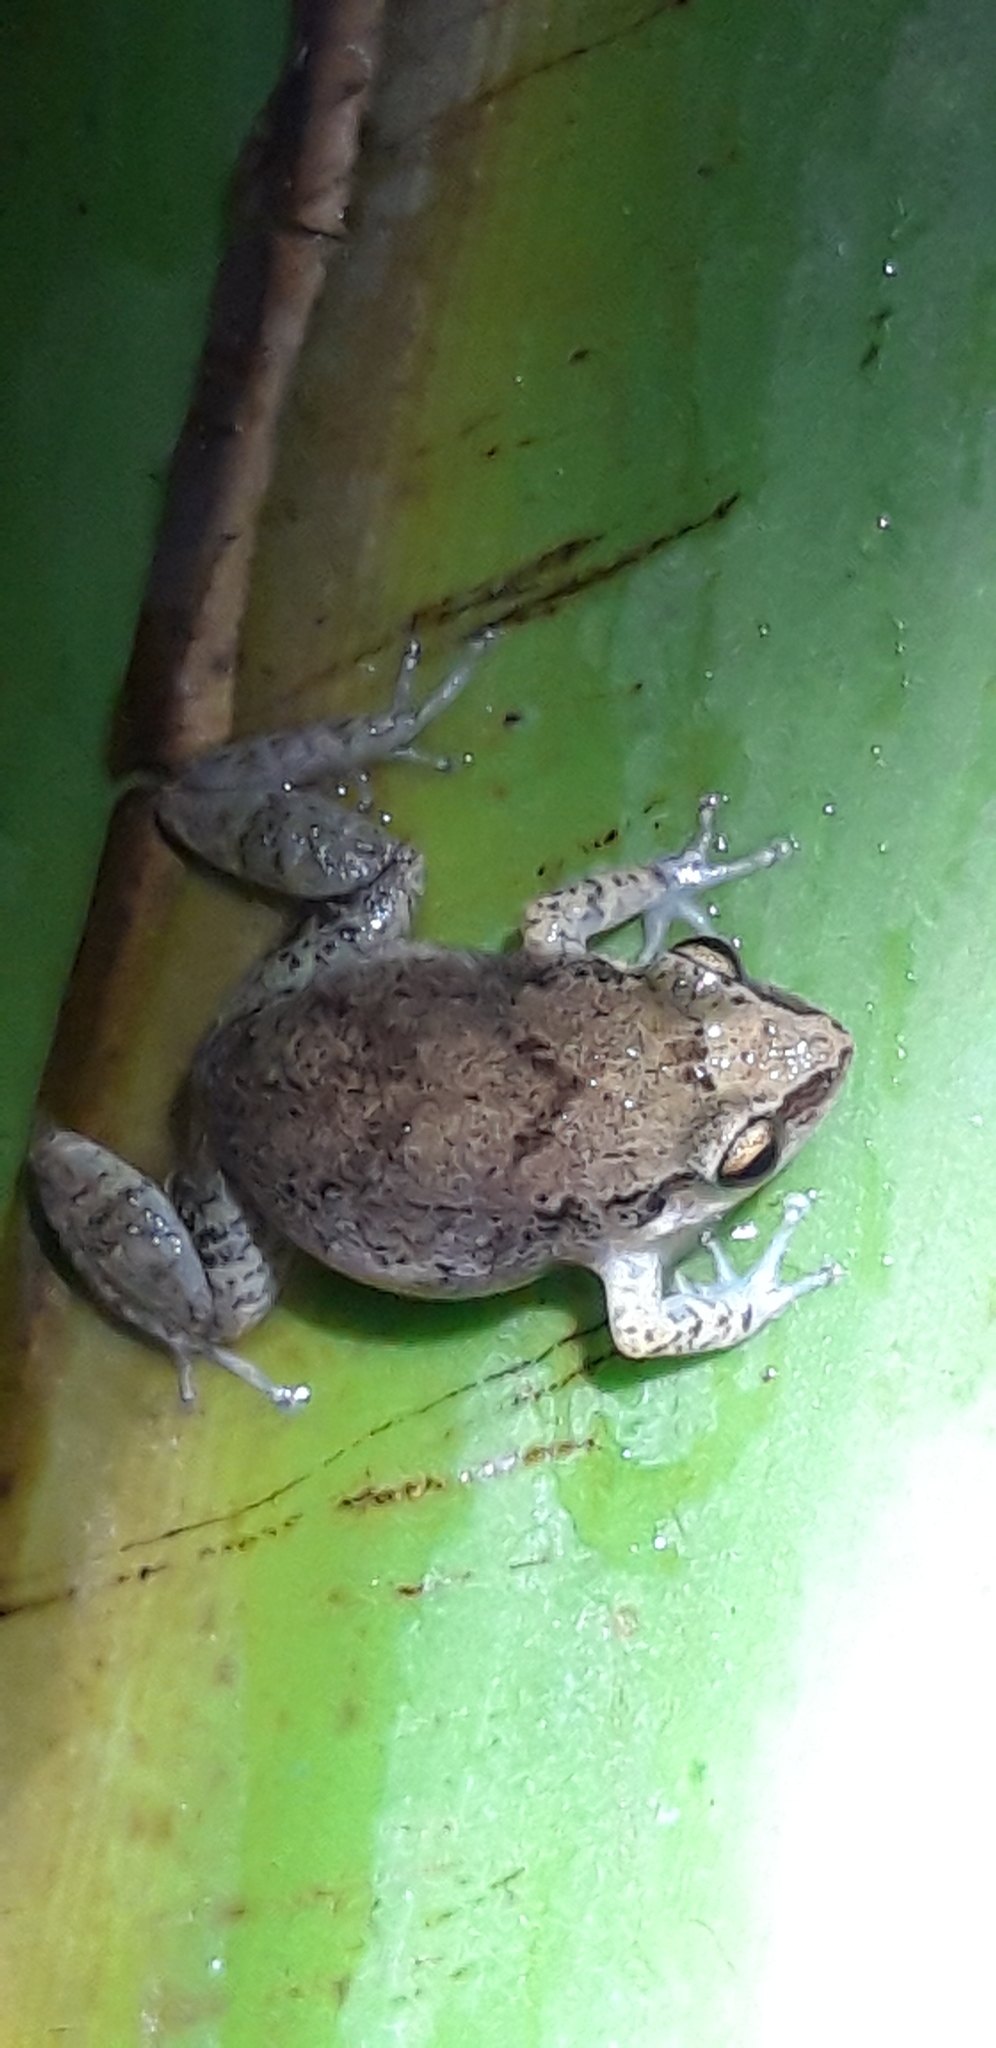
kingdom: Animalia
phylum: Chordata
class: Amphibia
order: Anura
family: Eleutherodactylidae
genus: Eleutherodactylus
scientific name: Eleutherodactylus montserratae
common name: Montserrat whistling frog
